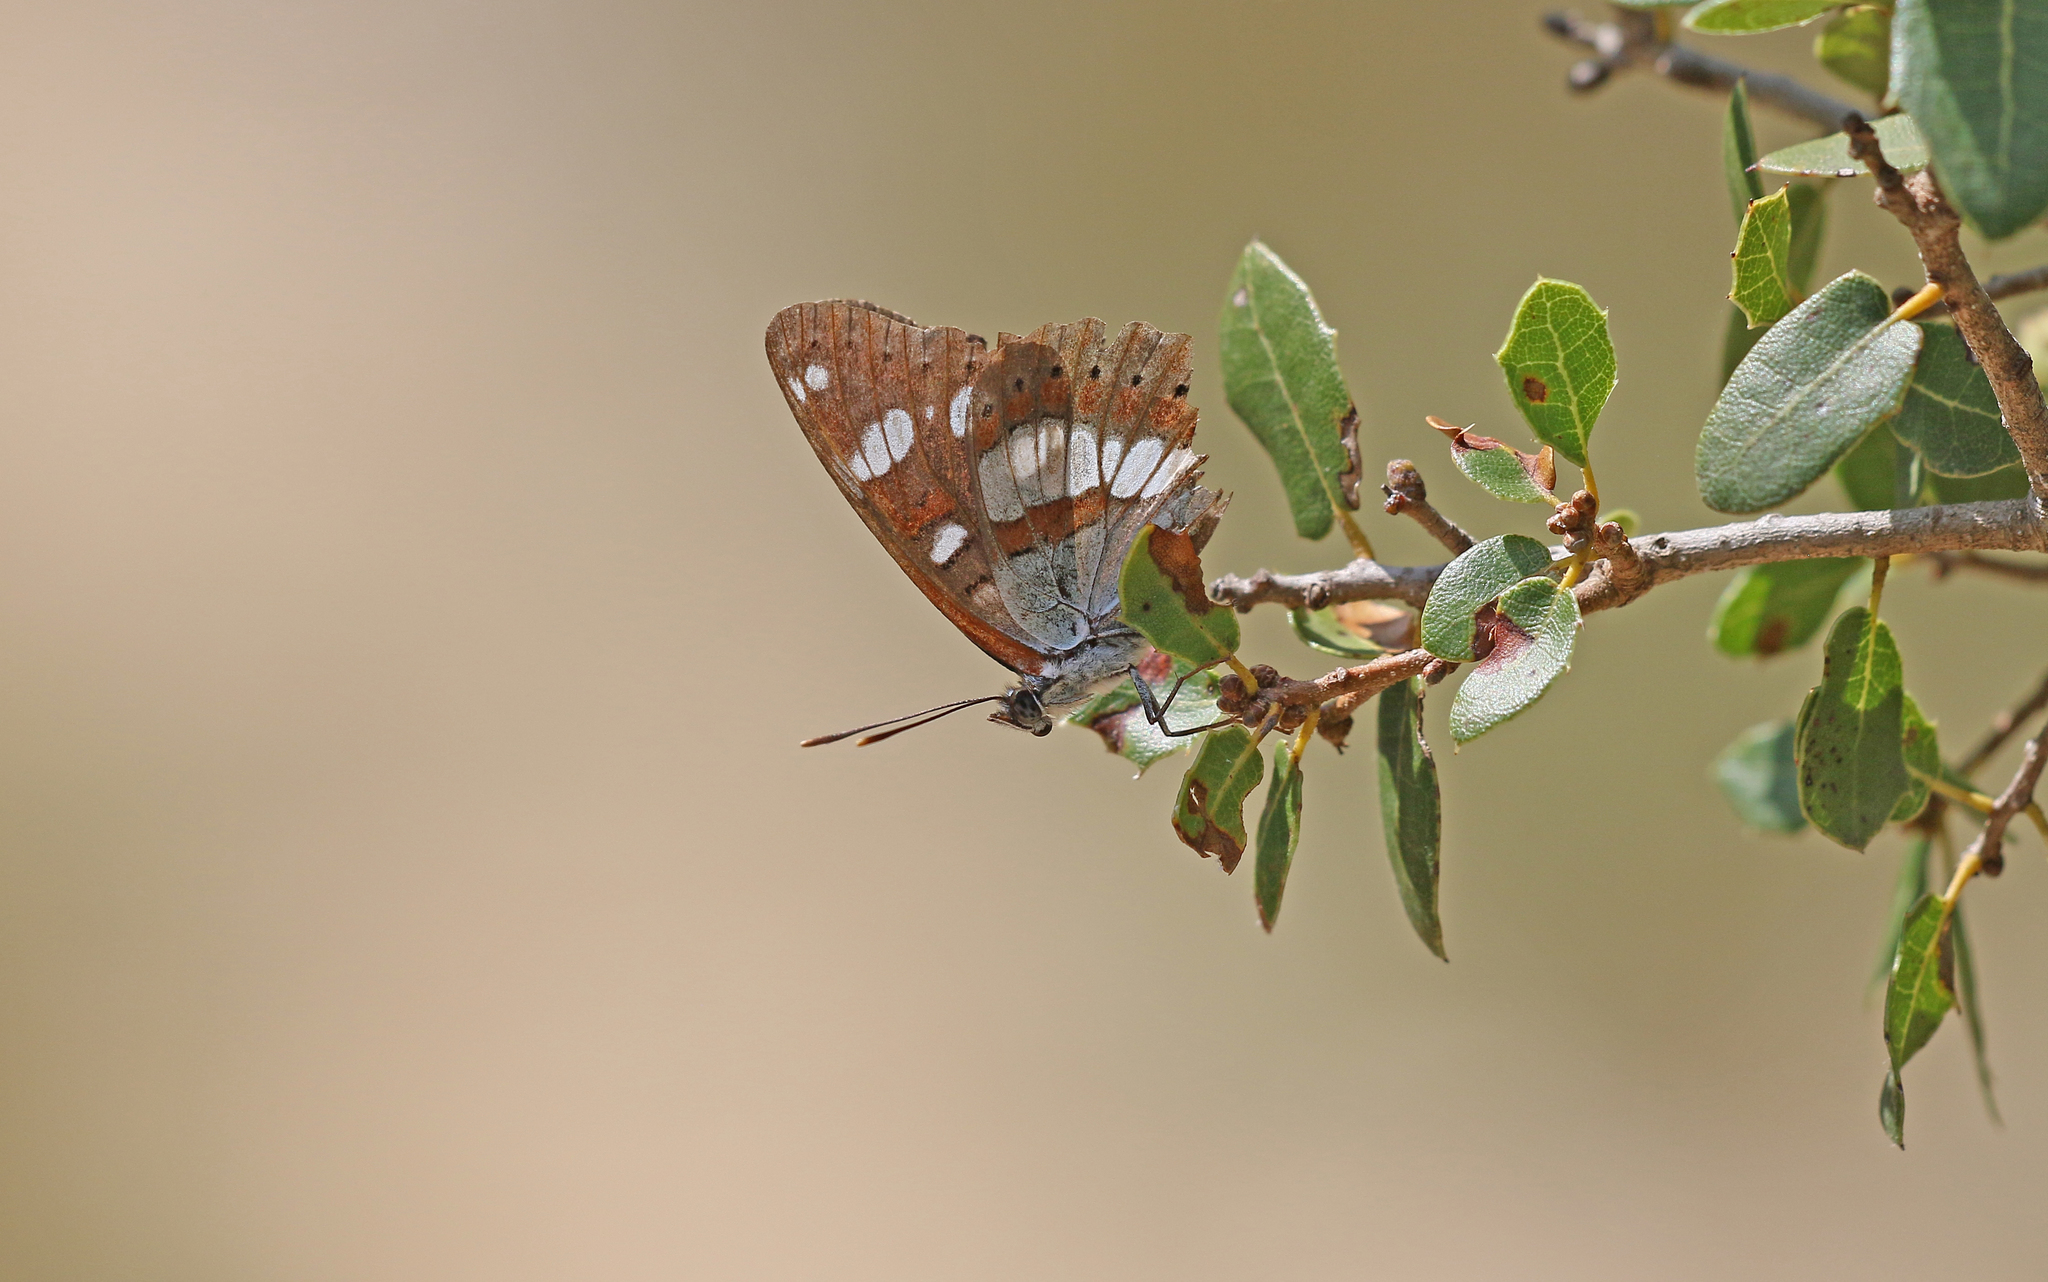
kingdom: Animalia
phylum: Arthropoda
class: Insecta
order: Lepidoptera
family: Nymphalidae
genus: Limenitis
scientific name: Limenitis reducta
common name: Southern white admiral
